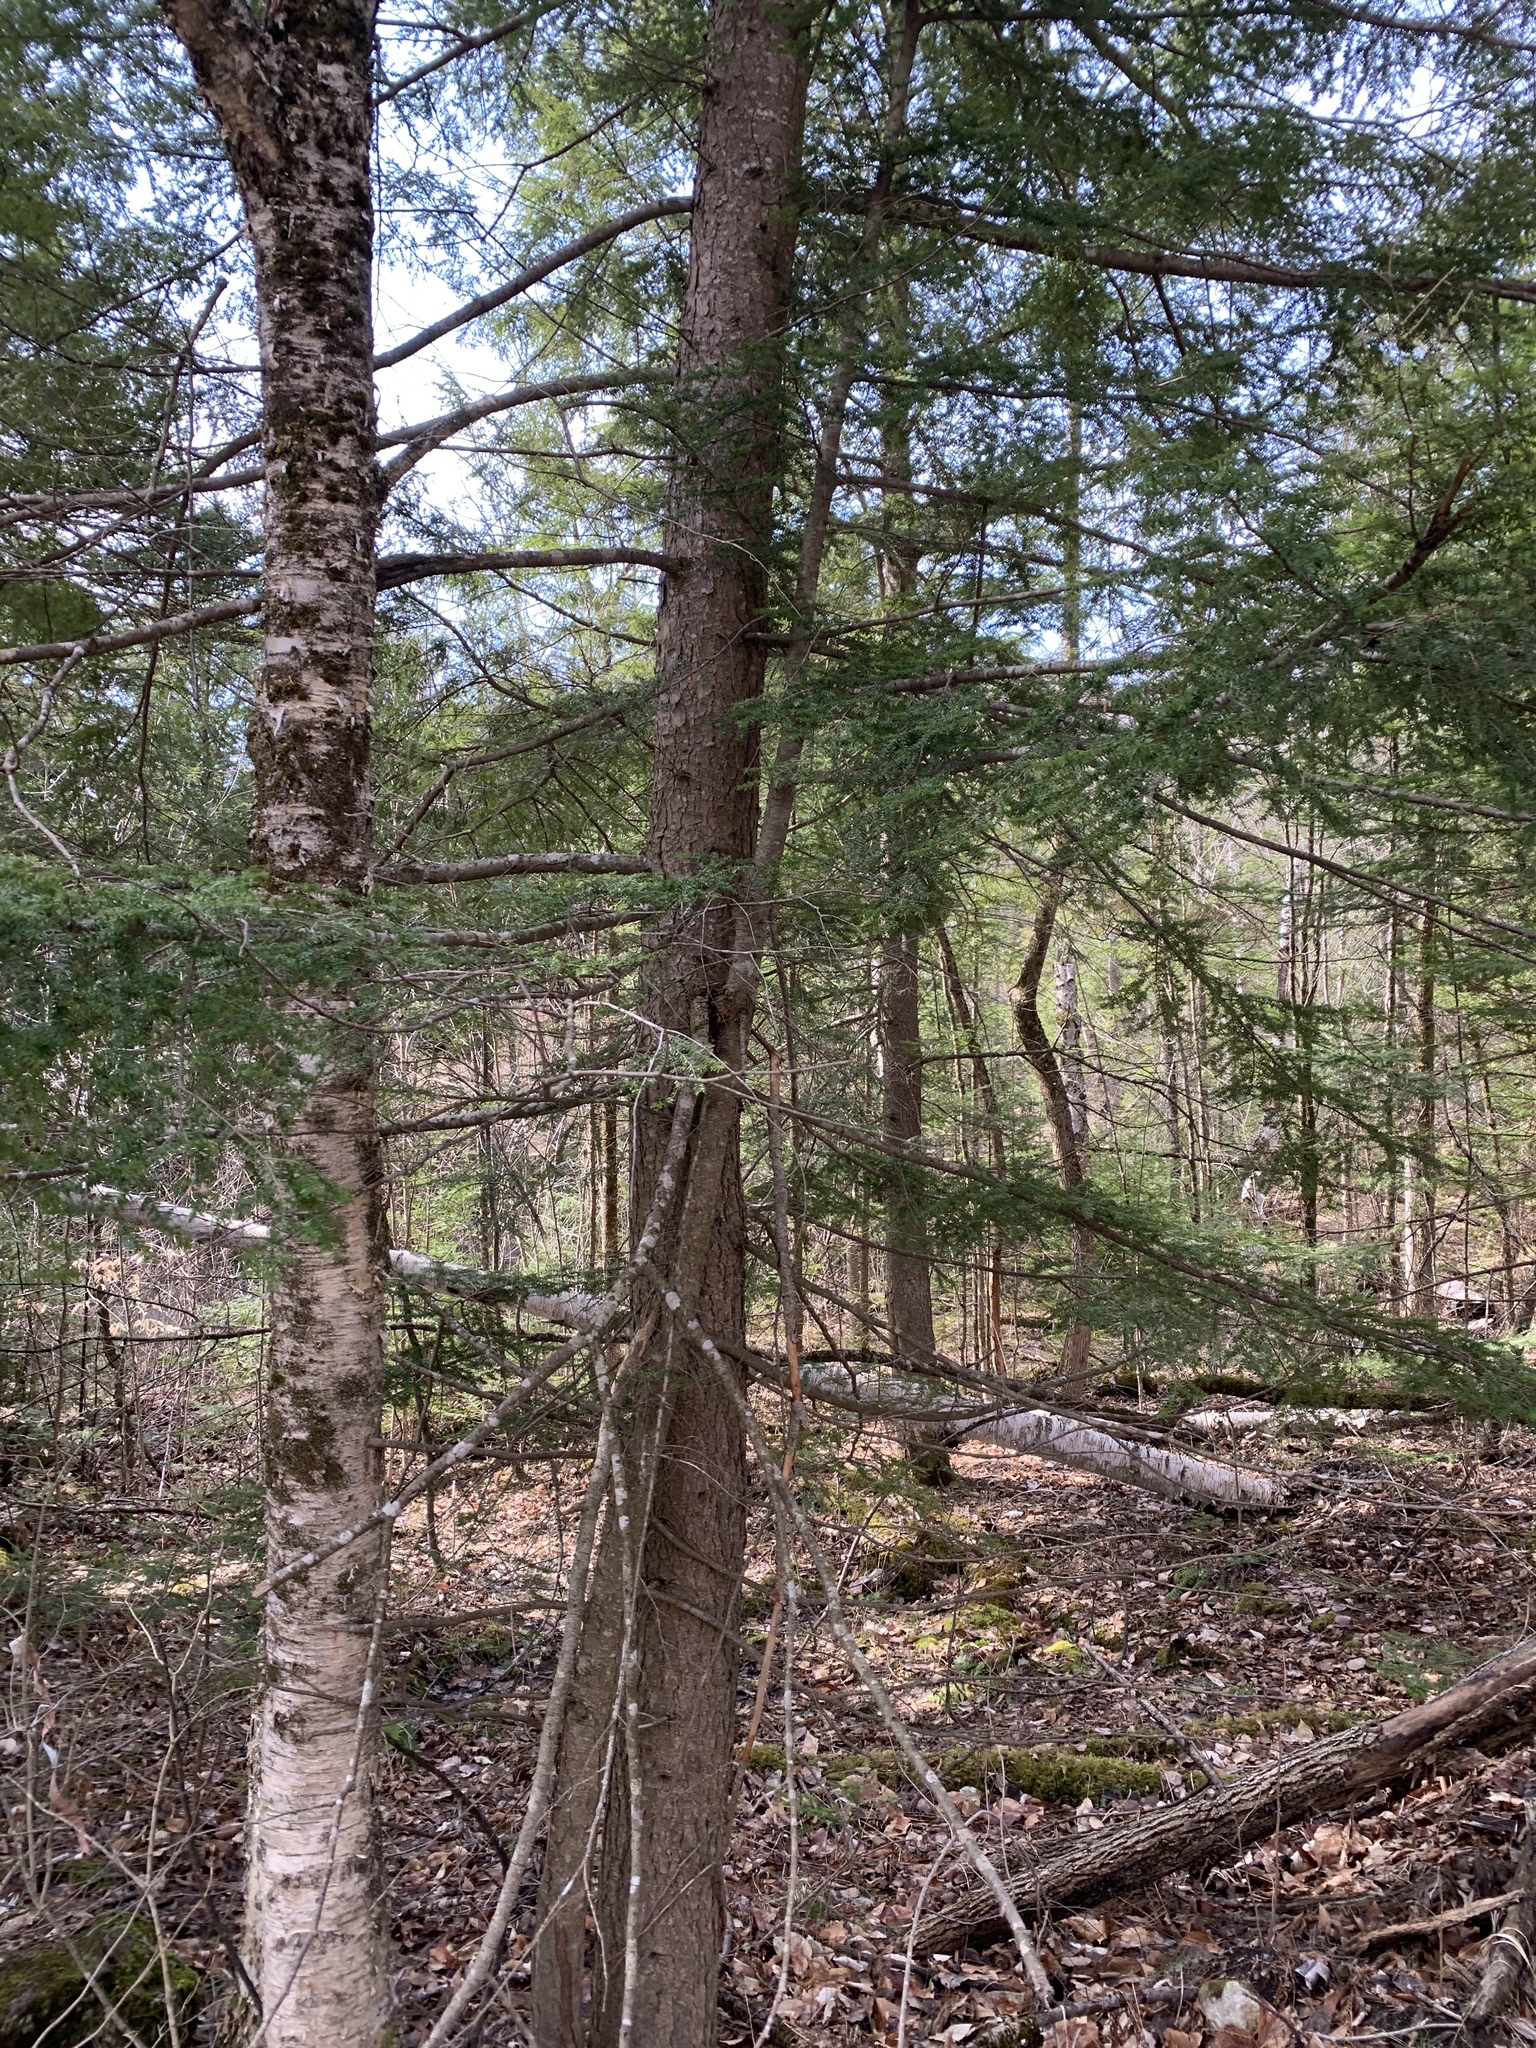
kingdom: Plantae
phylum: Tracheophyta
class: Pinopsida
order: Pinales
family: Pinaceae
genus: Tsuga
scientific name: Tsuga canadensis
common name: Eastern hemlock
